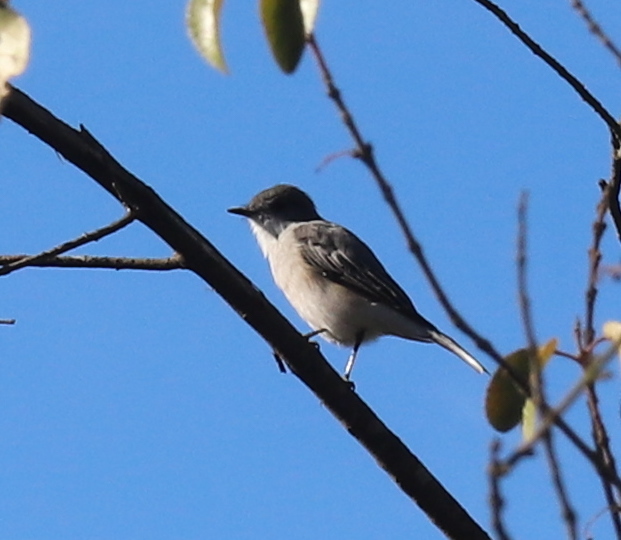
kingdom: Animalia
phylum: Chordata
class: Aves
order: Passeriformes
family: Tyrannidae
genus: Xolmis
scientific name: Xolmis pyrope
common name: Fire-eyed diucon
